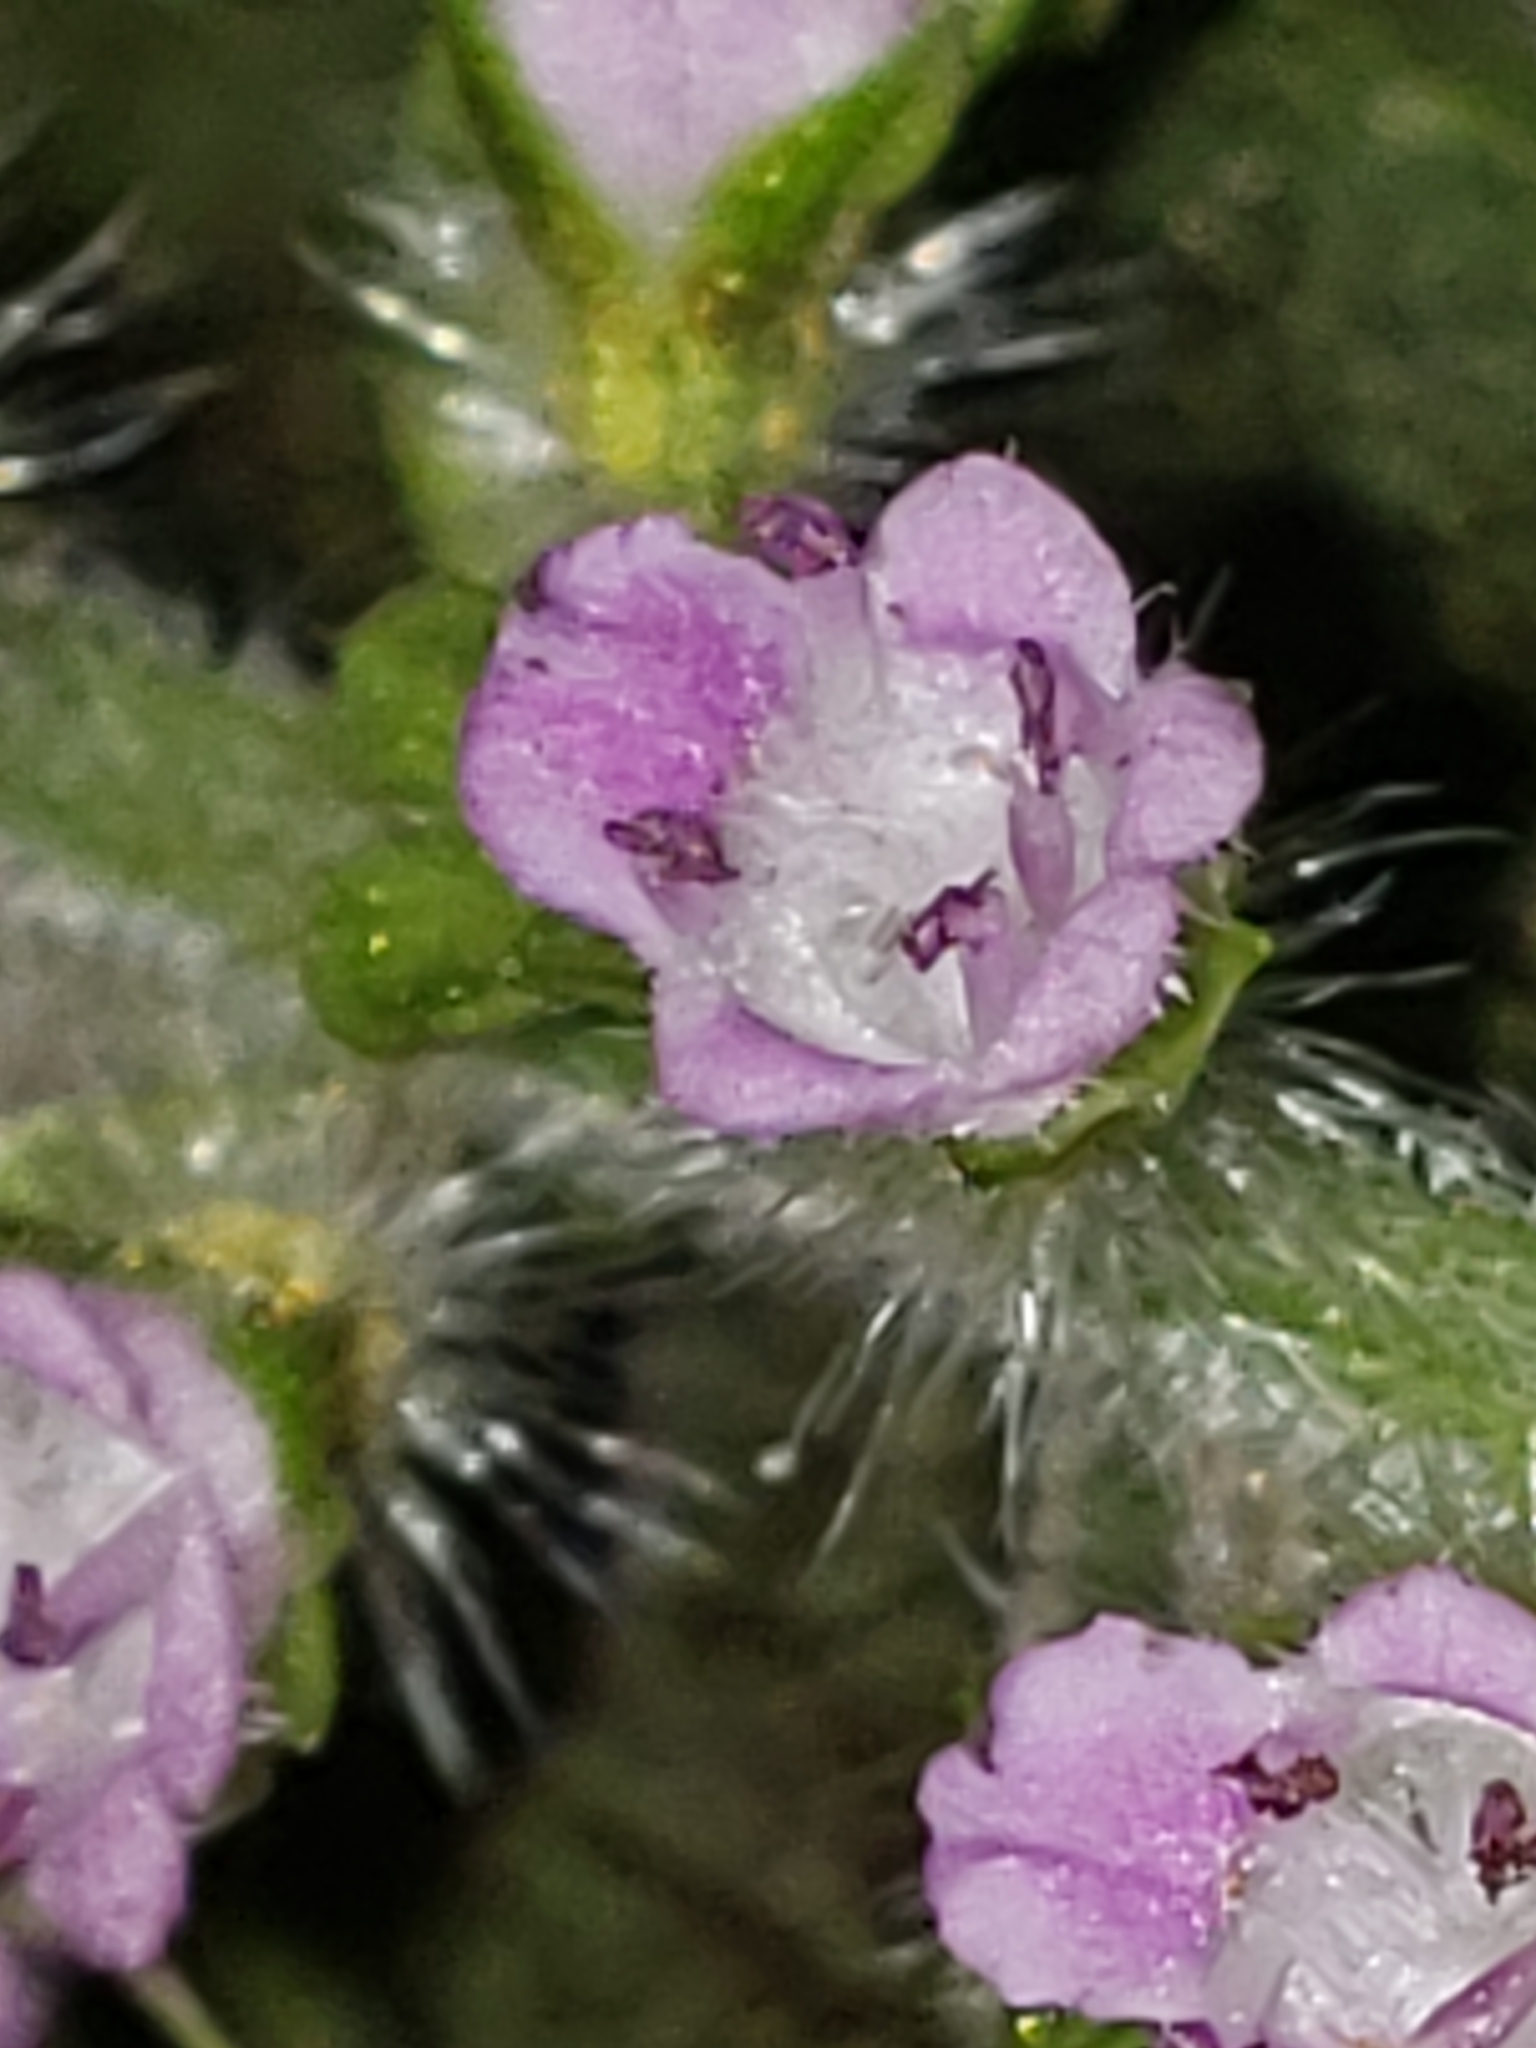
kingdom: Plantae
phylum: Tracheophyta
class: Magnoliopsida
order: Lamiales
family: Lamiaceae
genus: Perilla
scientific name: Perilla frutescens
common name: Perilla
